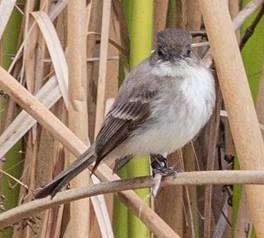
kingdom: Animalia
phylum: Chordata
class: Aves
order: Passeriformes
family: Tyrannidae
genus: Sayornis
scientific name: Sayornis phoebe
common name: Eastern phoebe
